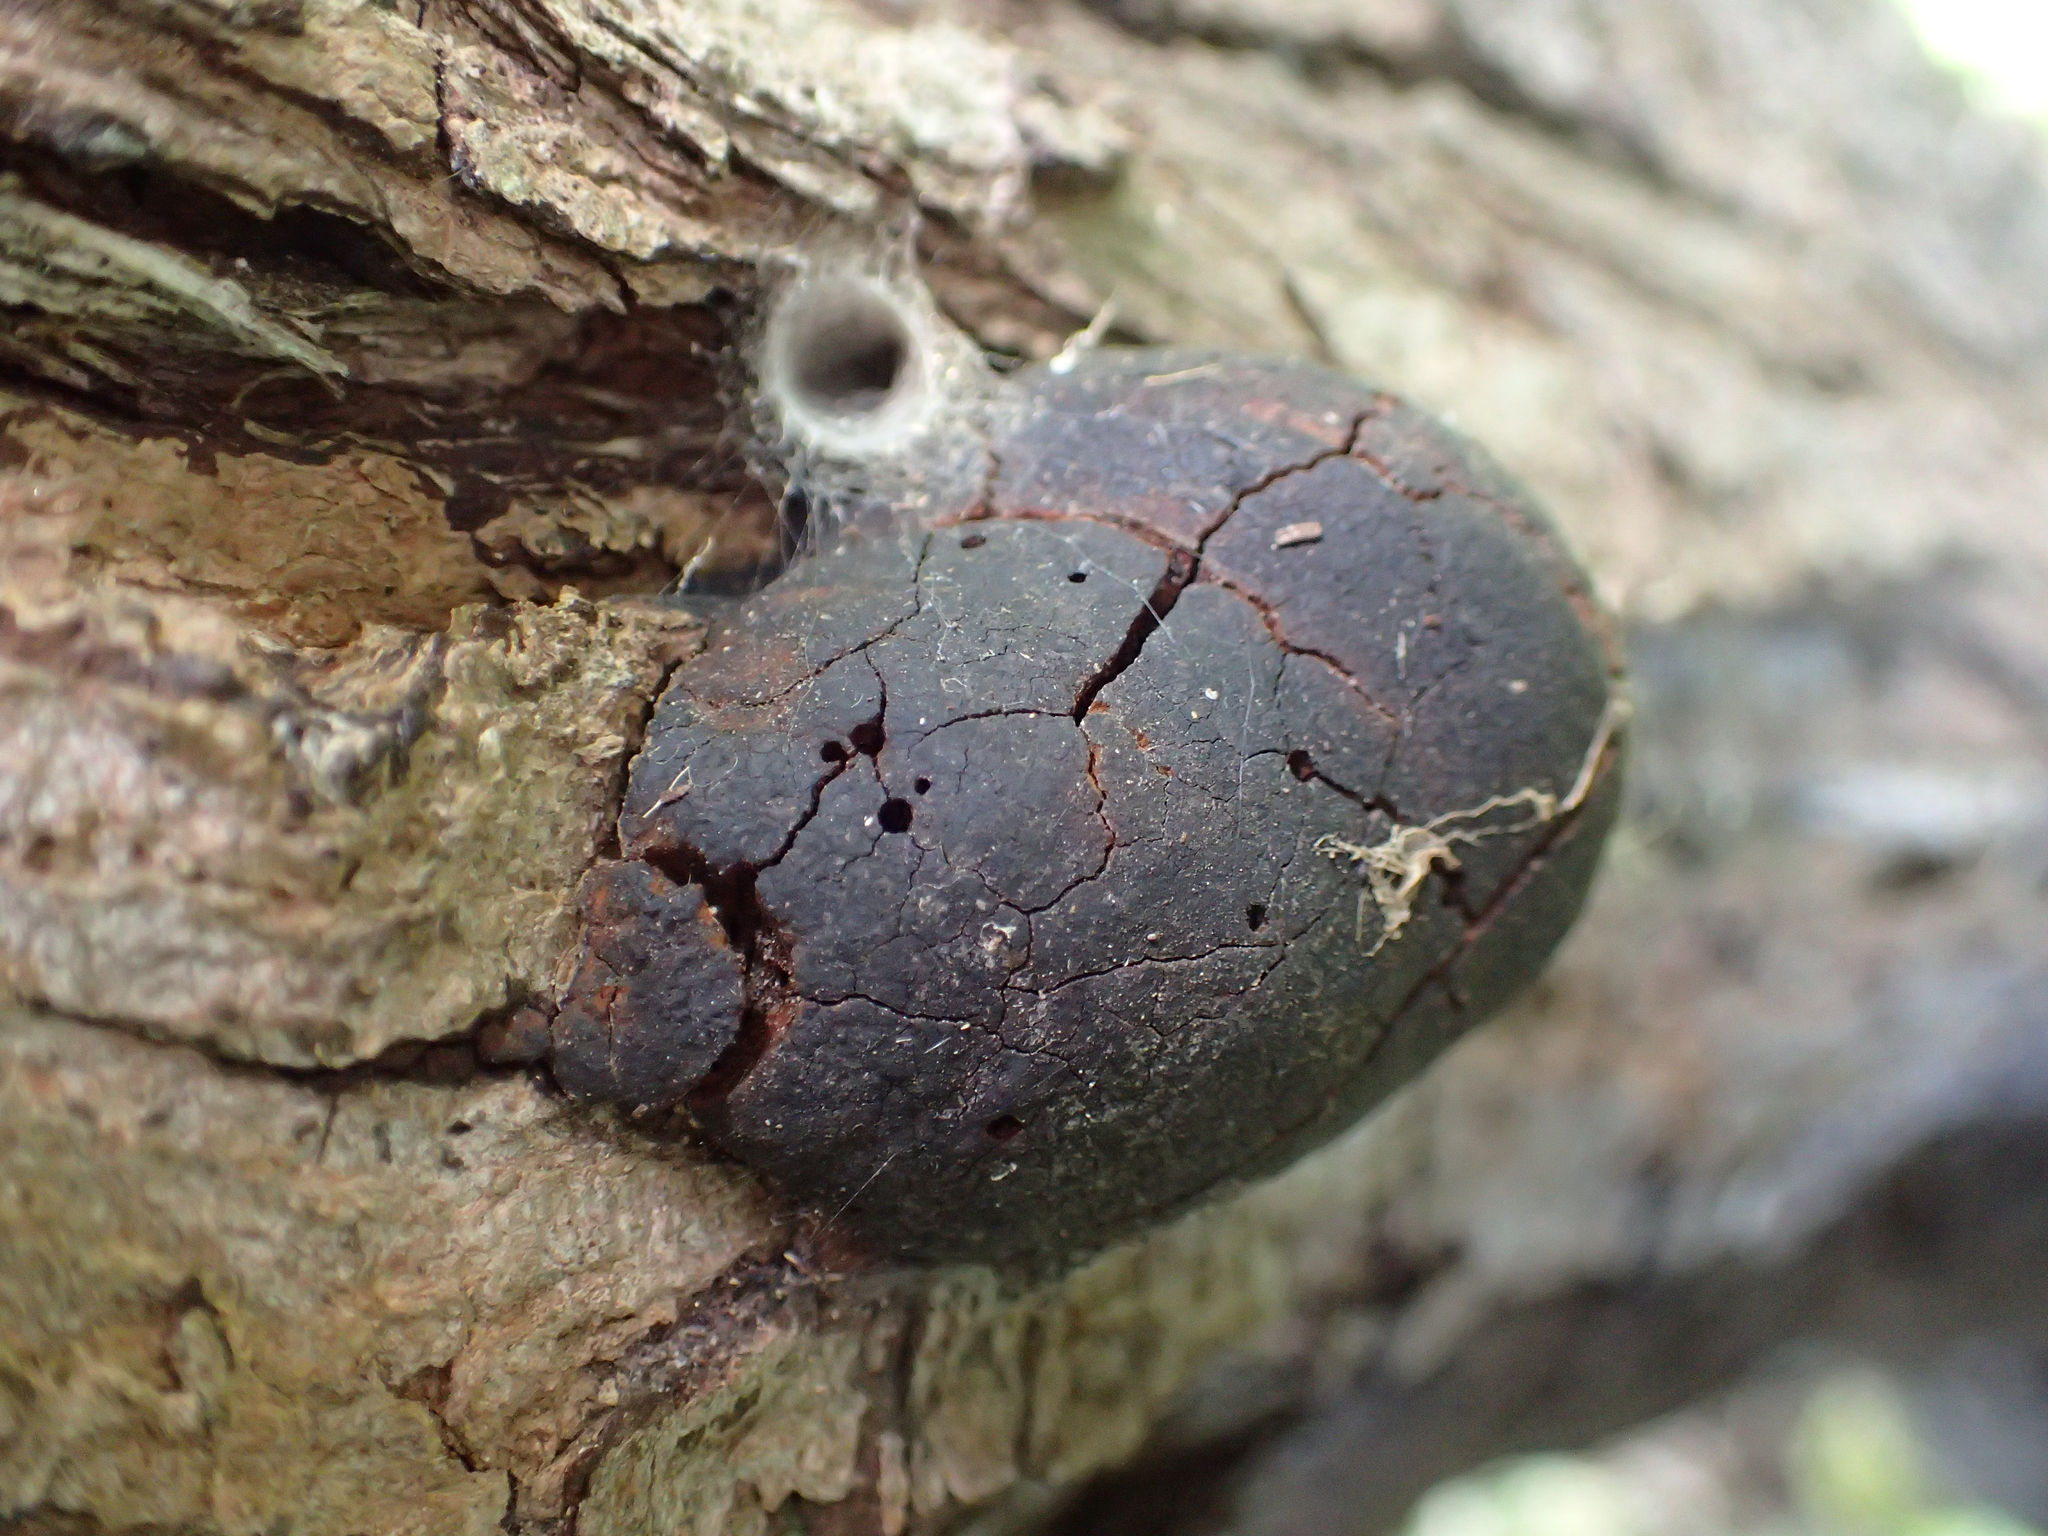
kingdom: Fungi
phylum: Basidiomycota
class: Agaricomycetes
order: Hymenochaetales
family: Hymenochaetaceae
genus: Fomitiporia
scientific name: Fomitiporia
